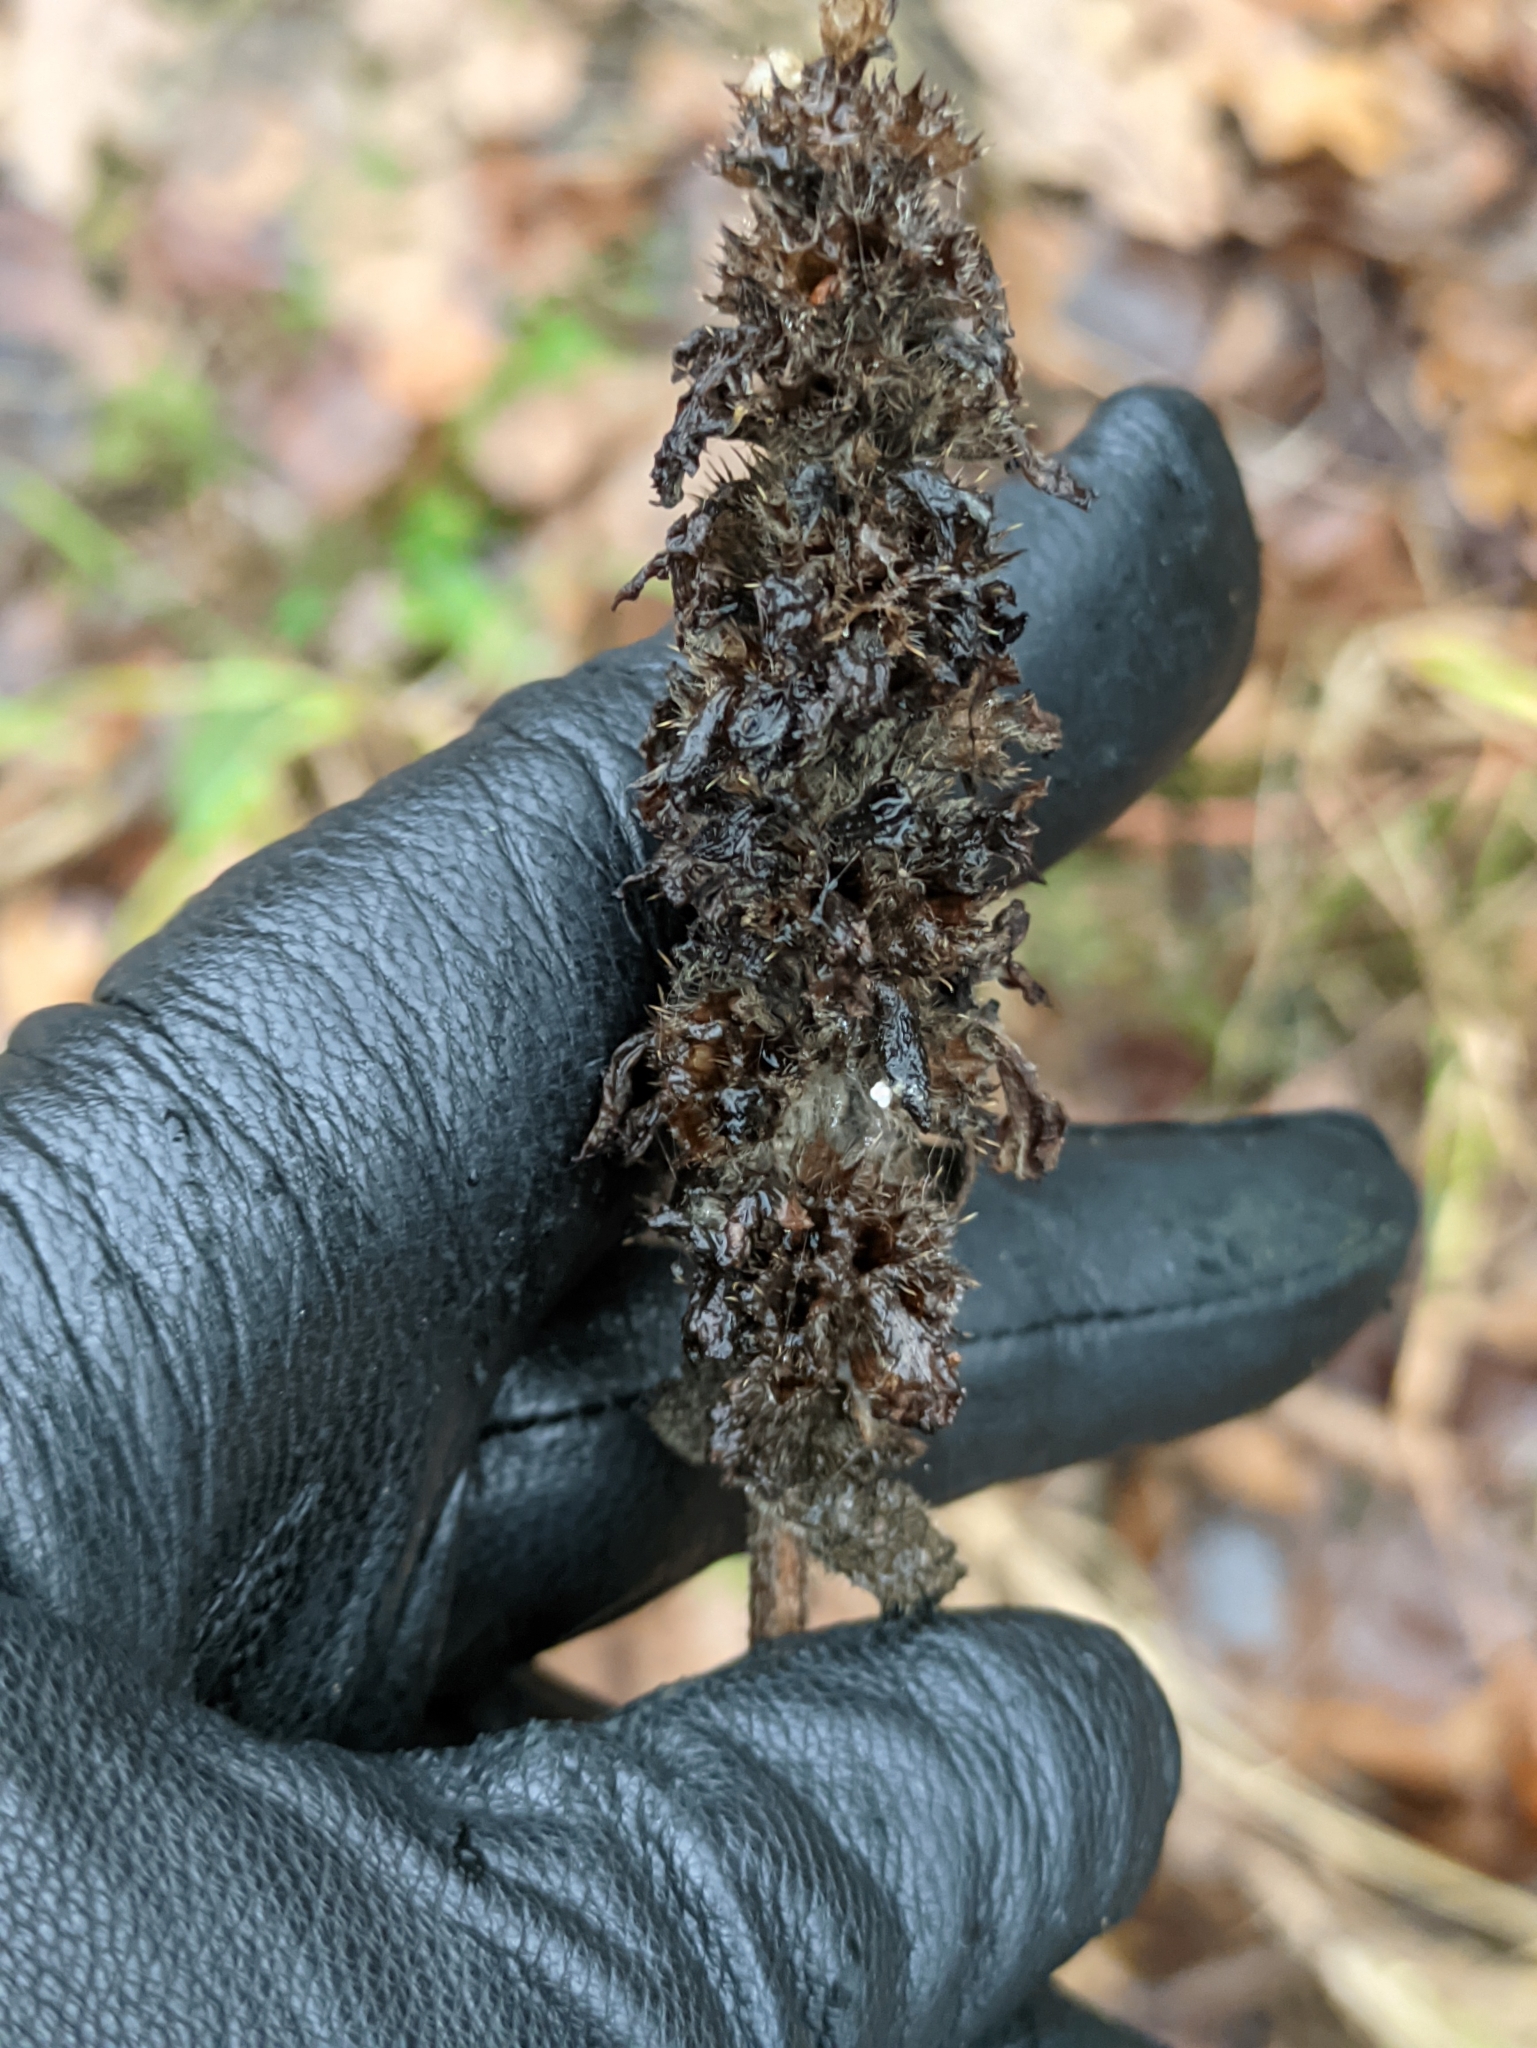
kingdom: Plantae
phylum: Tracheophyta
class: Magnoliopsida
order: Lamiales
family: Lamiaceae
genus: Betonica
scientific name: Betonica officinalis
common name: Bishop's-wort
